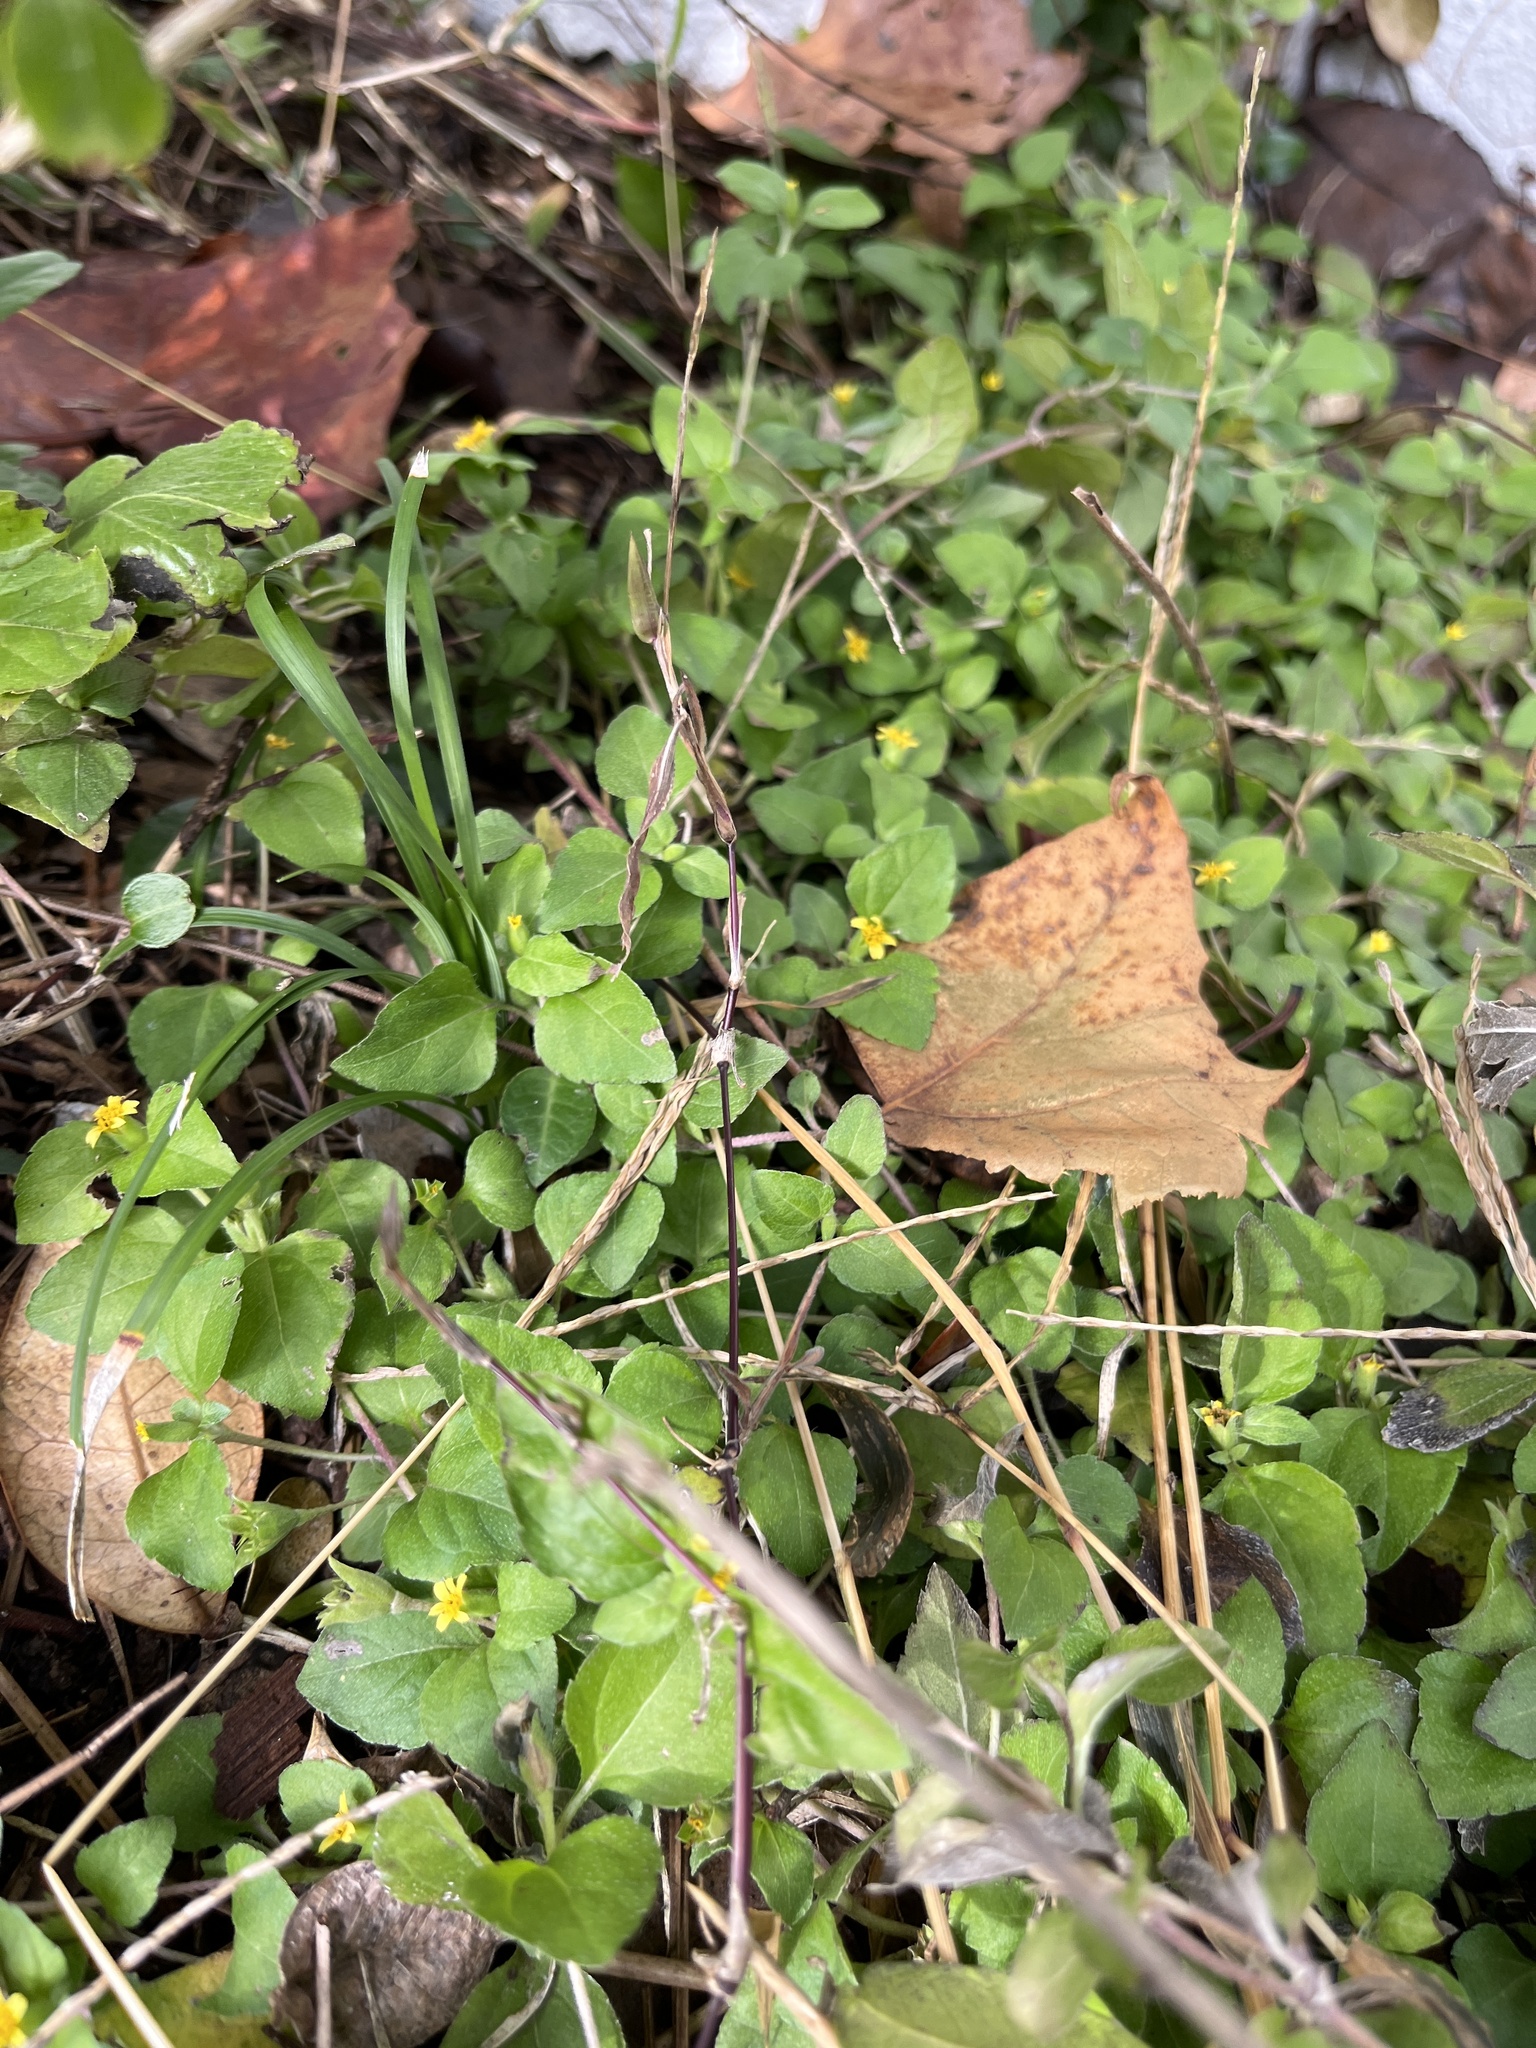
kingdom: Plantae
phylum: Tracheophyta
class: Magnoliopsida
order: Asterales
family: Asteraceae
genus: Calyptocarpus
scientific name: Calyptocarpus vialis
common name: Straggler daisy
